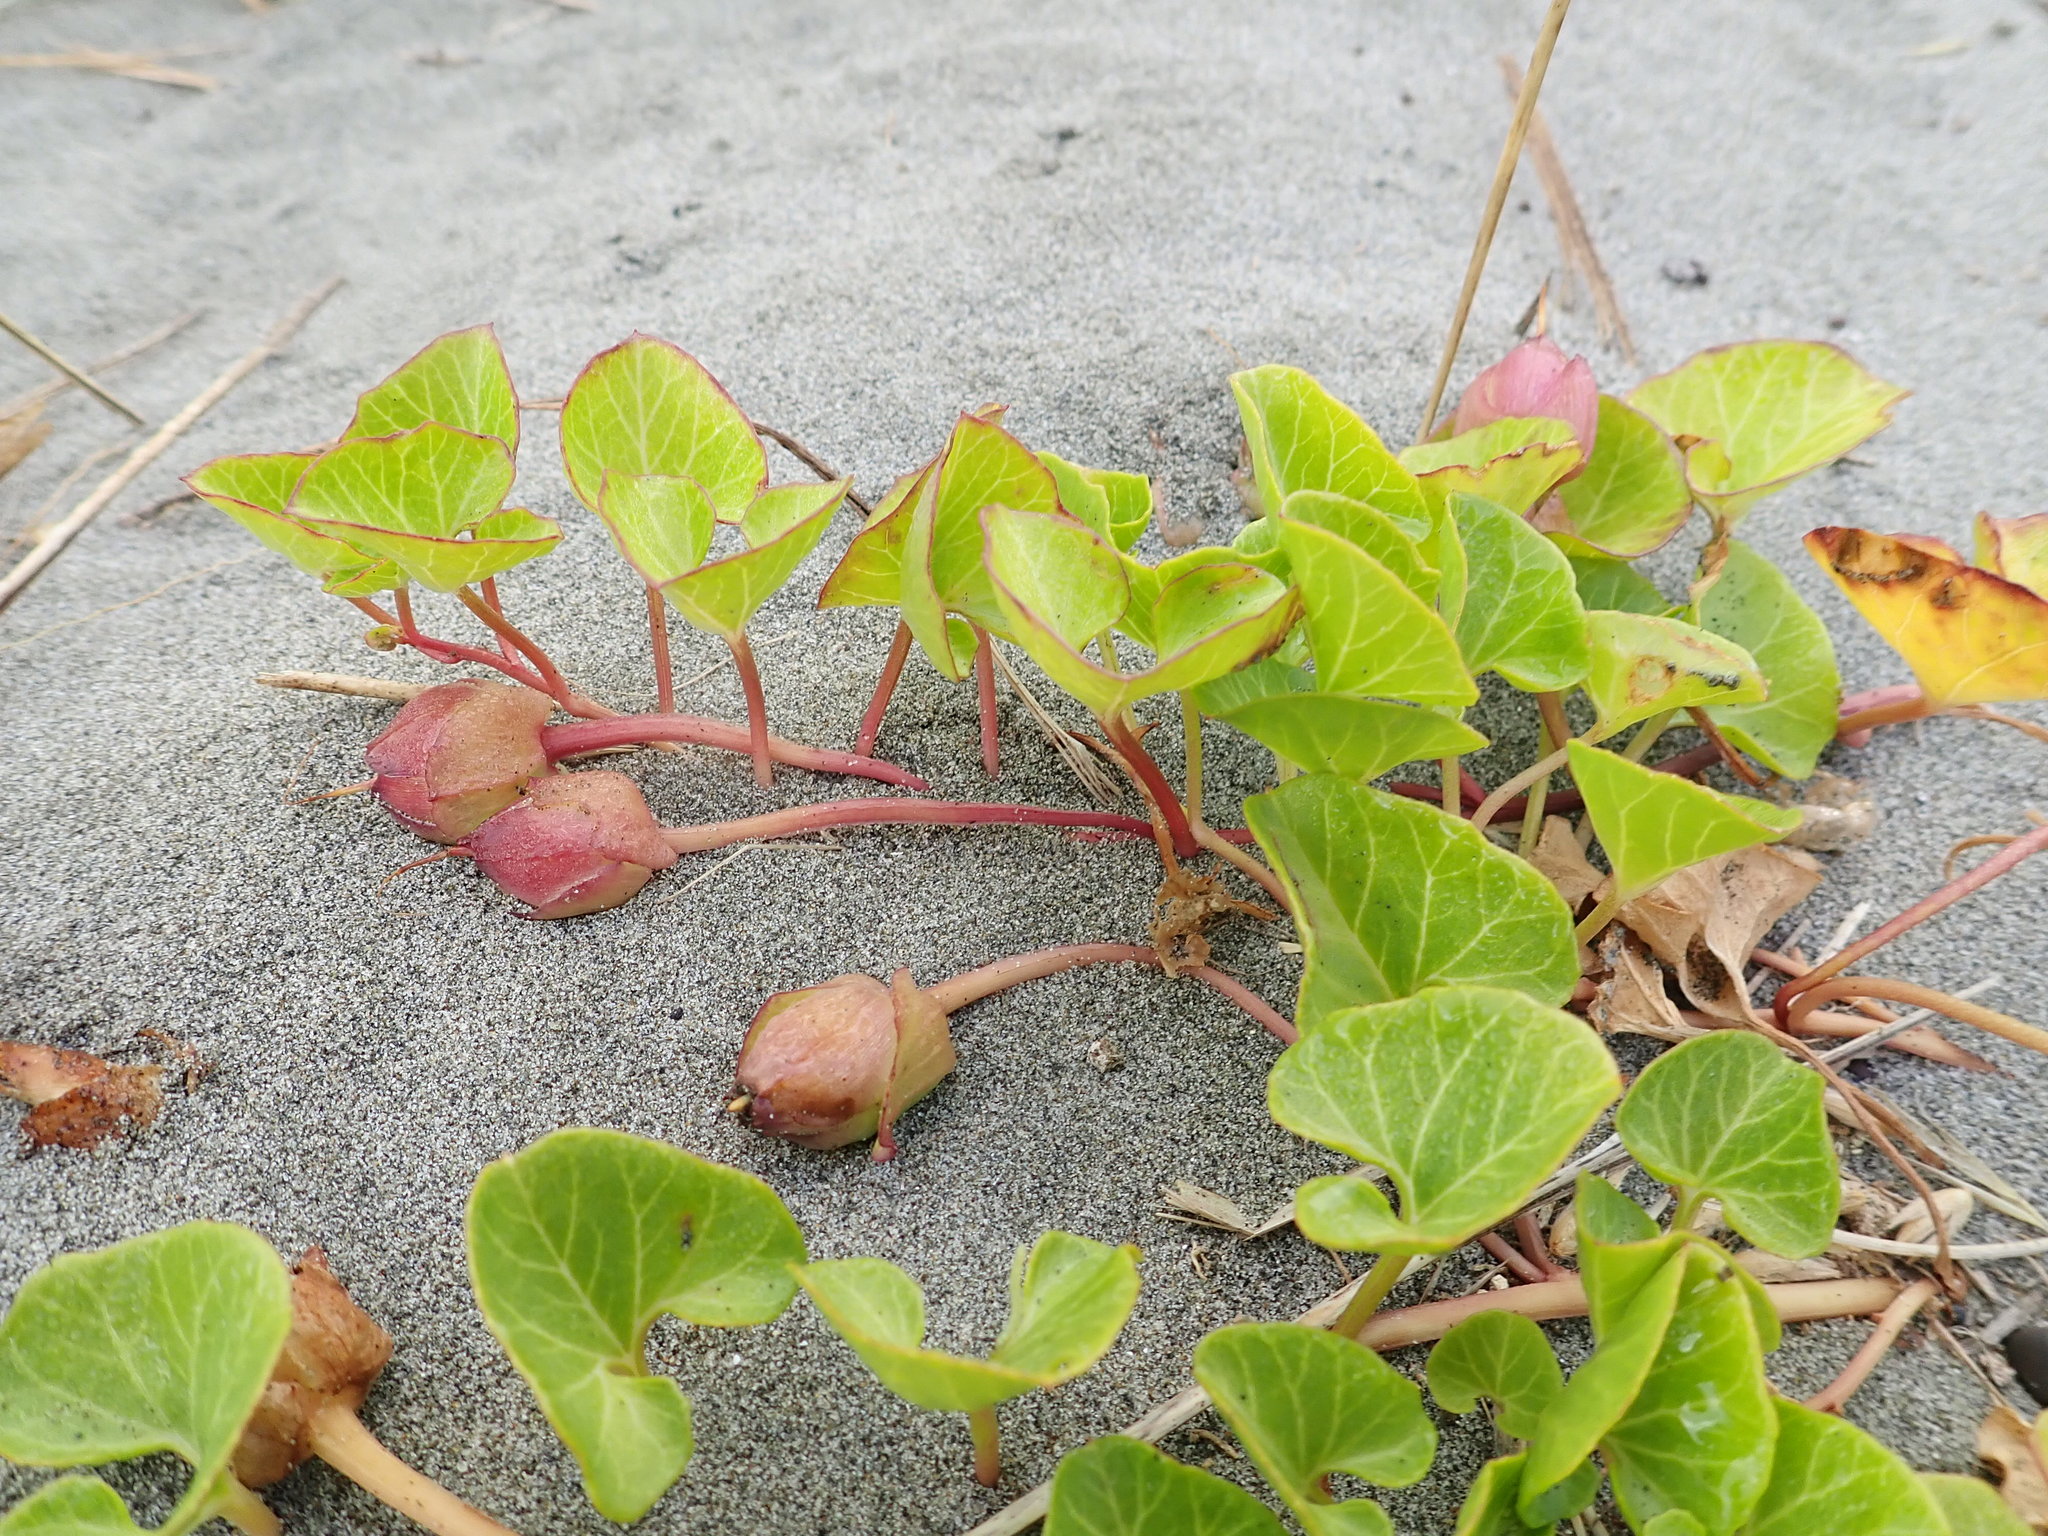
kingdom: Plantae
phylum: Tracheophyta
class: Magnoliopsida
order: Solanales
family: Convolvulaceae
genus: Calystegia
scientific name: Calystegia soldanella
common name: Sea bindweed
